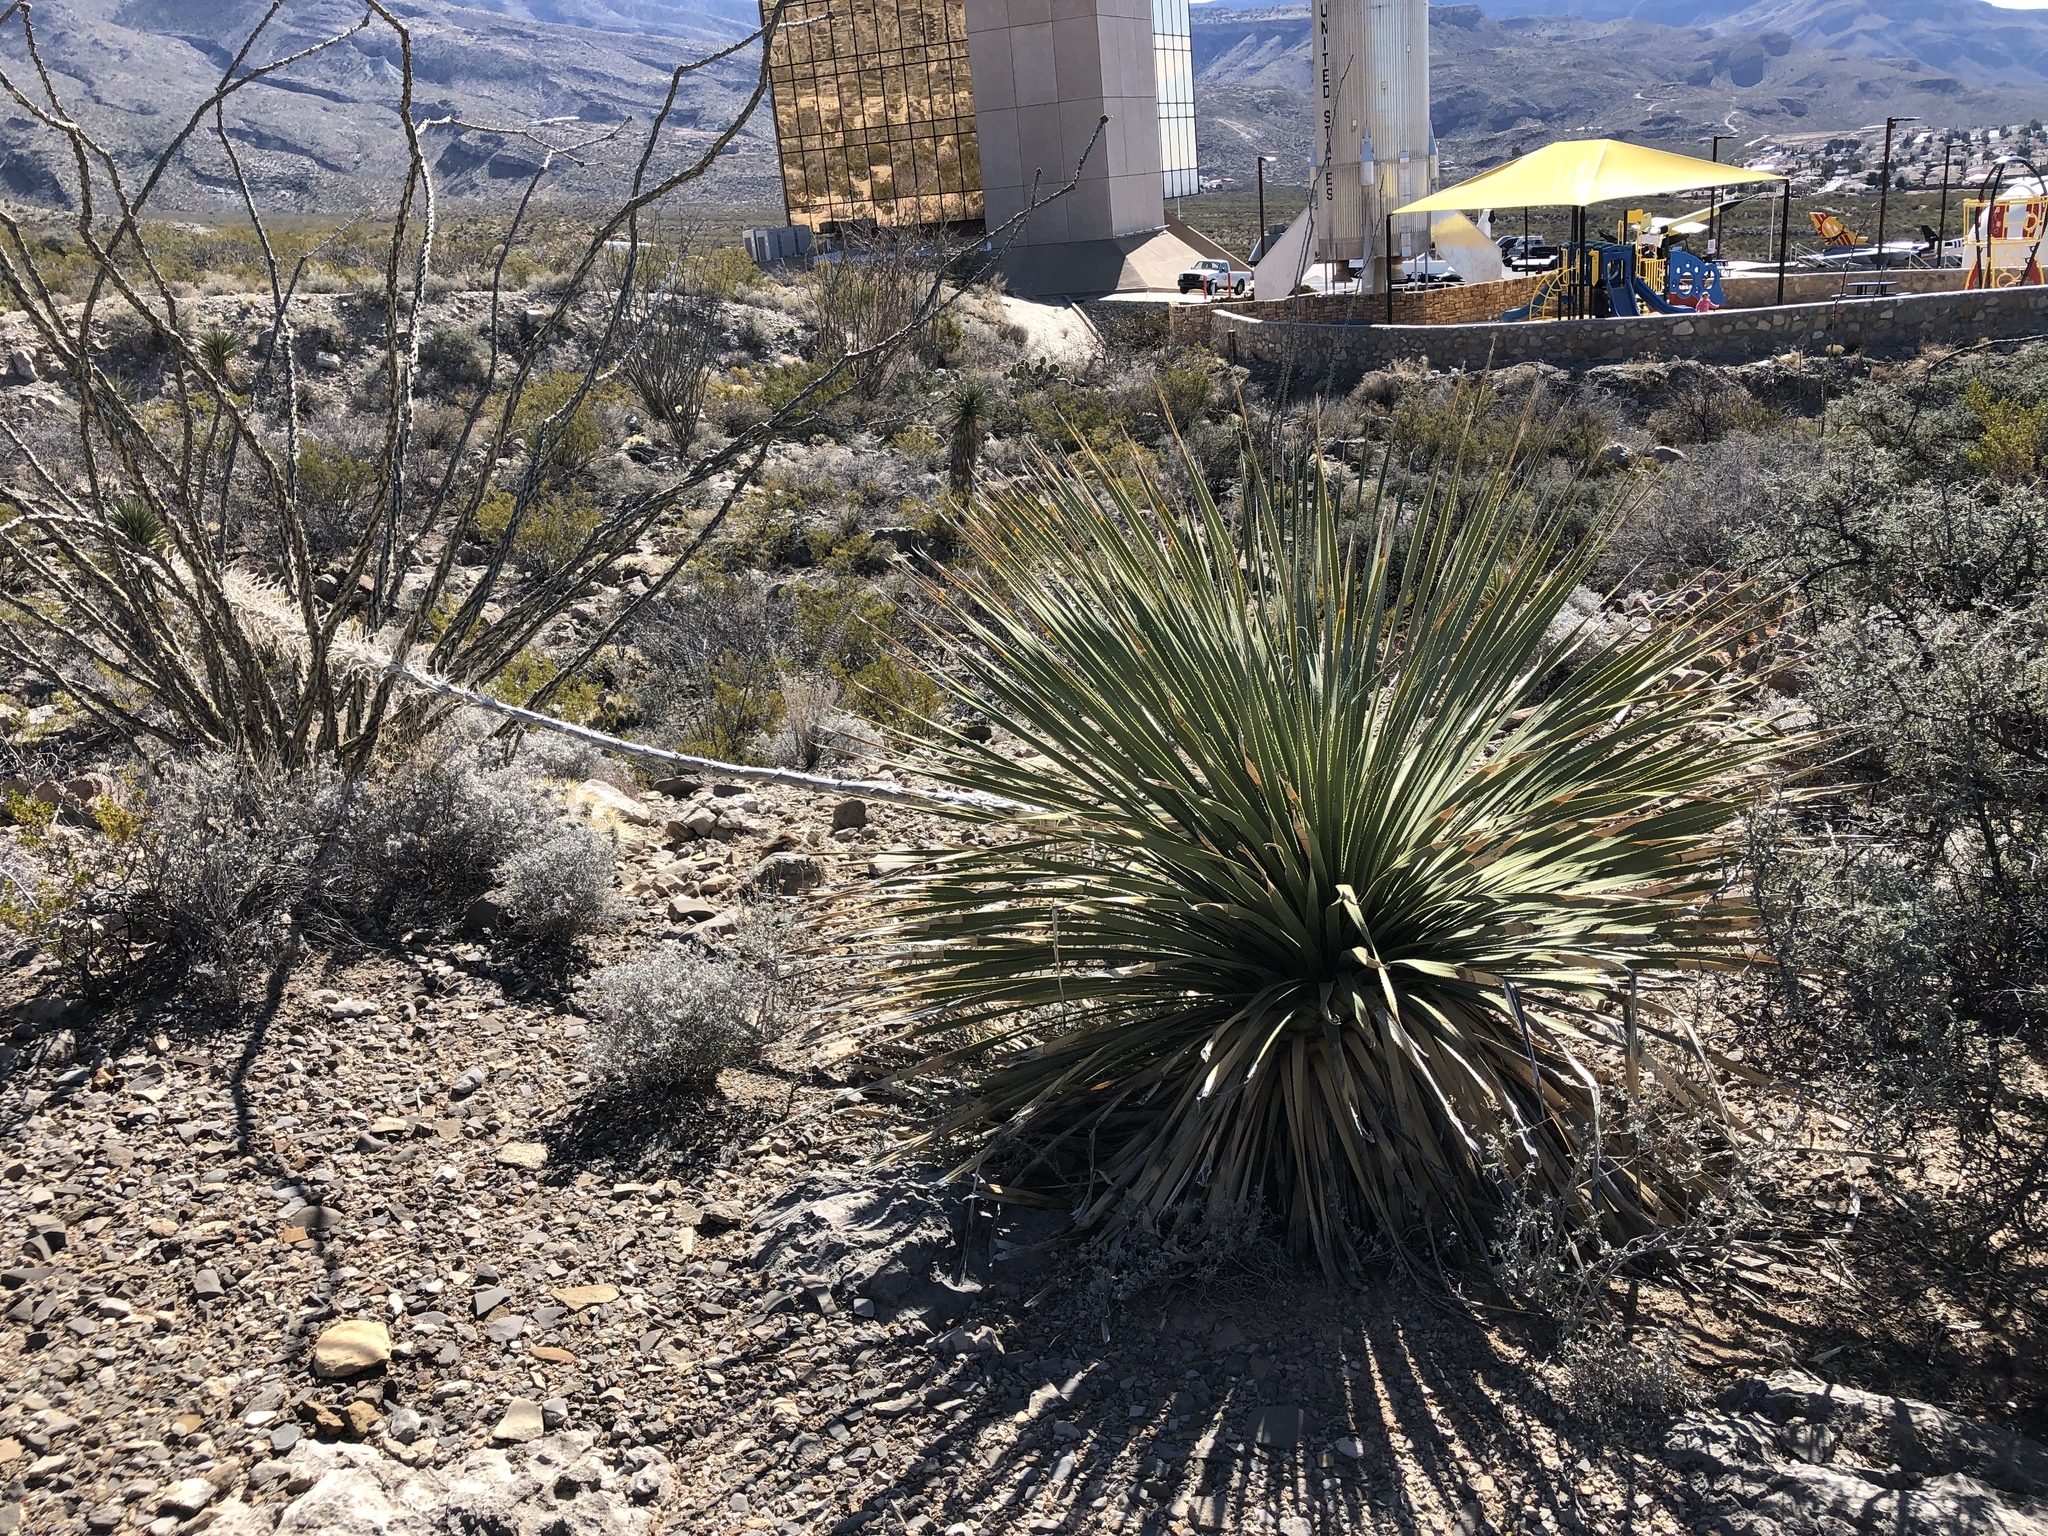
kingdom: Plantae
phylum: Tracheophyta
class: Liliopsida
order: Asparagales
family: Asparagaceae
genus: Dasylirion
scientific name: Dasylirion wheeleri
